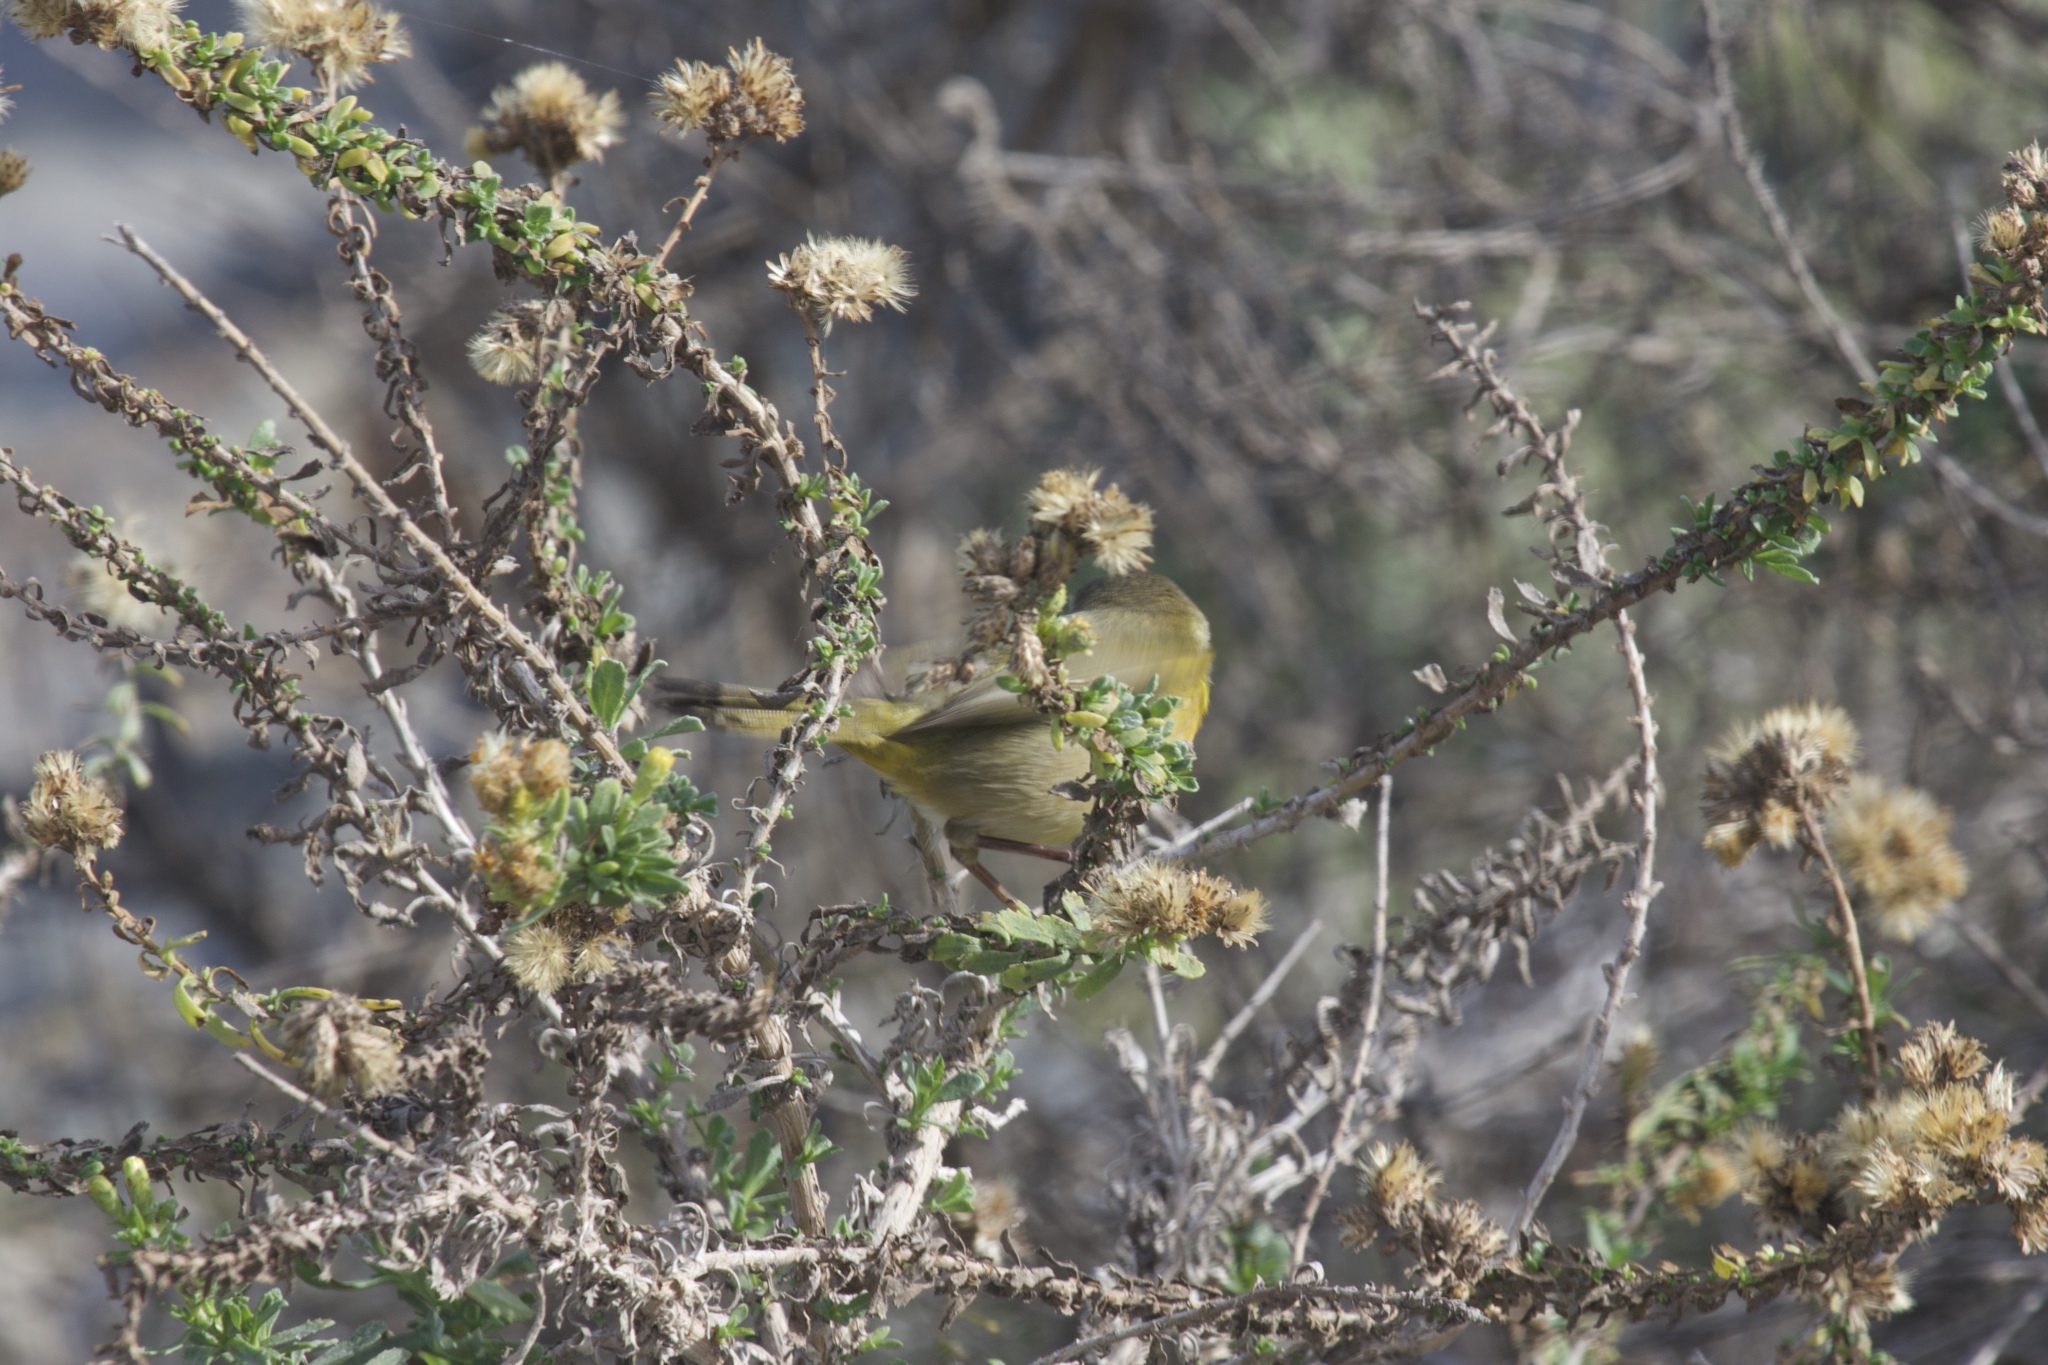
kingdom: Animalia
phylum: Chordata
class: Aves
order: Passeriformes
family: Parulidae
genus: Geothlypis
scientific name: Geothlypis trichas
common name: Common yellowthroat
